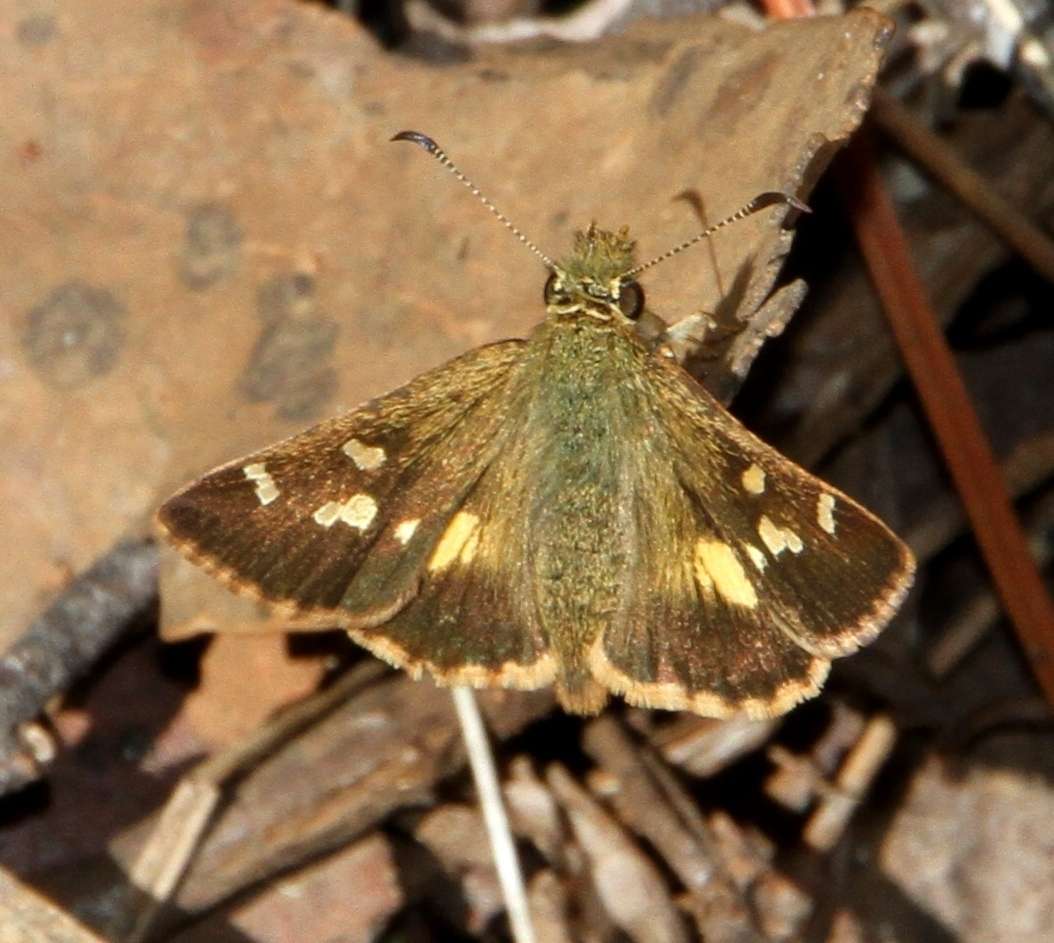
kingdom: Animalia
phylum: Arthropoda
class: Insecta
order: Lepidoptera
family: Hesperiidae
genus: Dispar
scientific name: Dispar compacta
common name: Barred skipper
